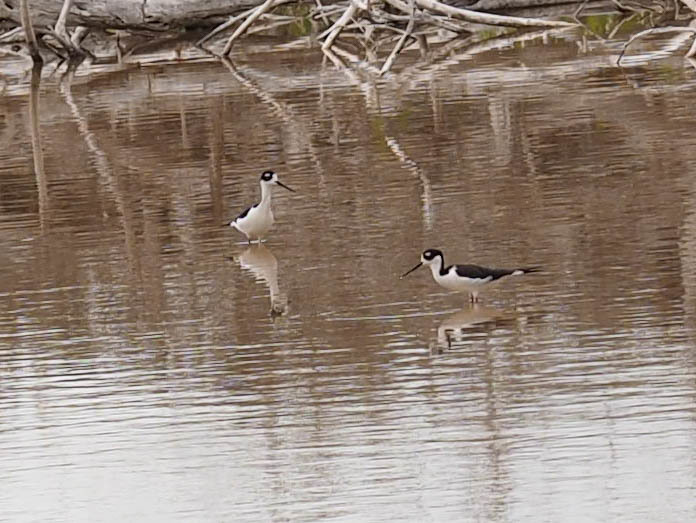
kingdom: Animalia
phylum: Chordata
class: Aves
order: Charadriiformes
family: Recurvirostridae
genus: Himantopus
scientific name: Himantopus mexicanus
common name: Black-necked stilt
